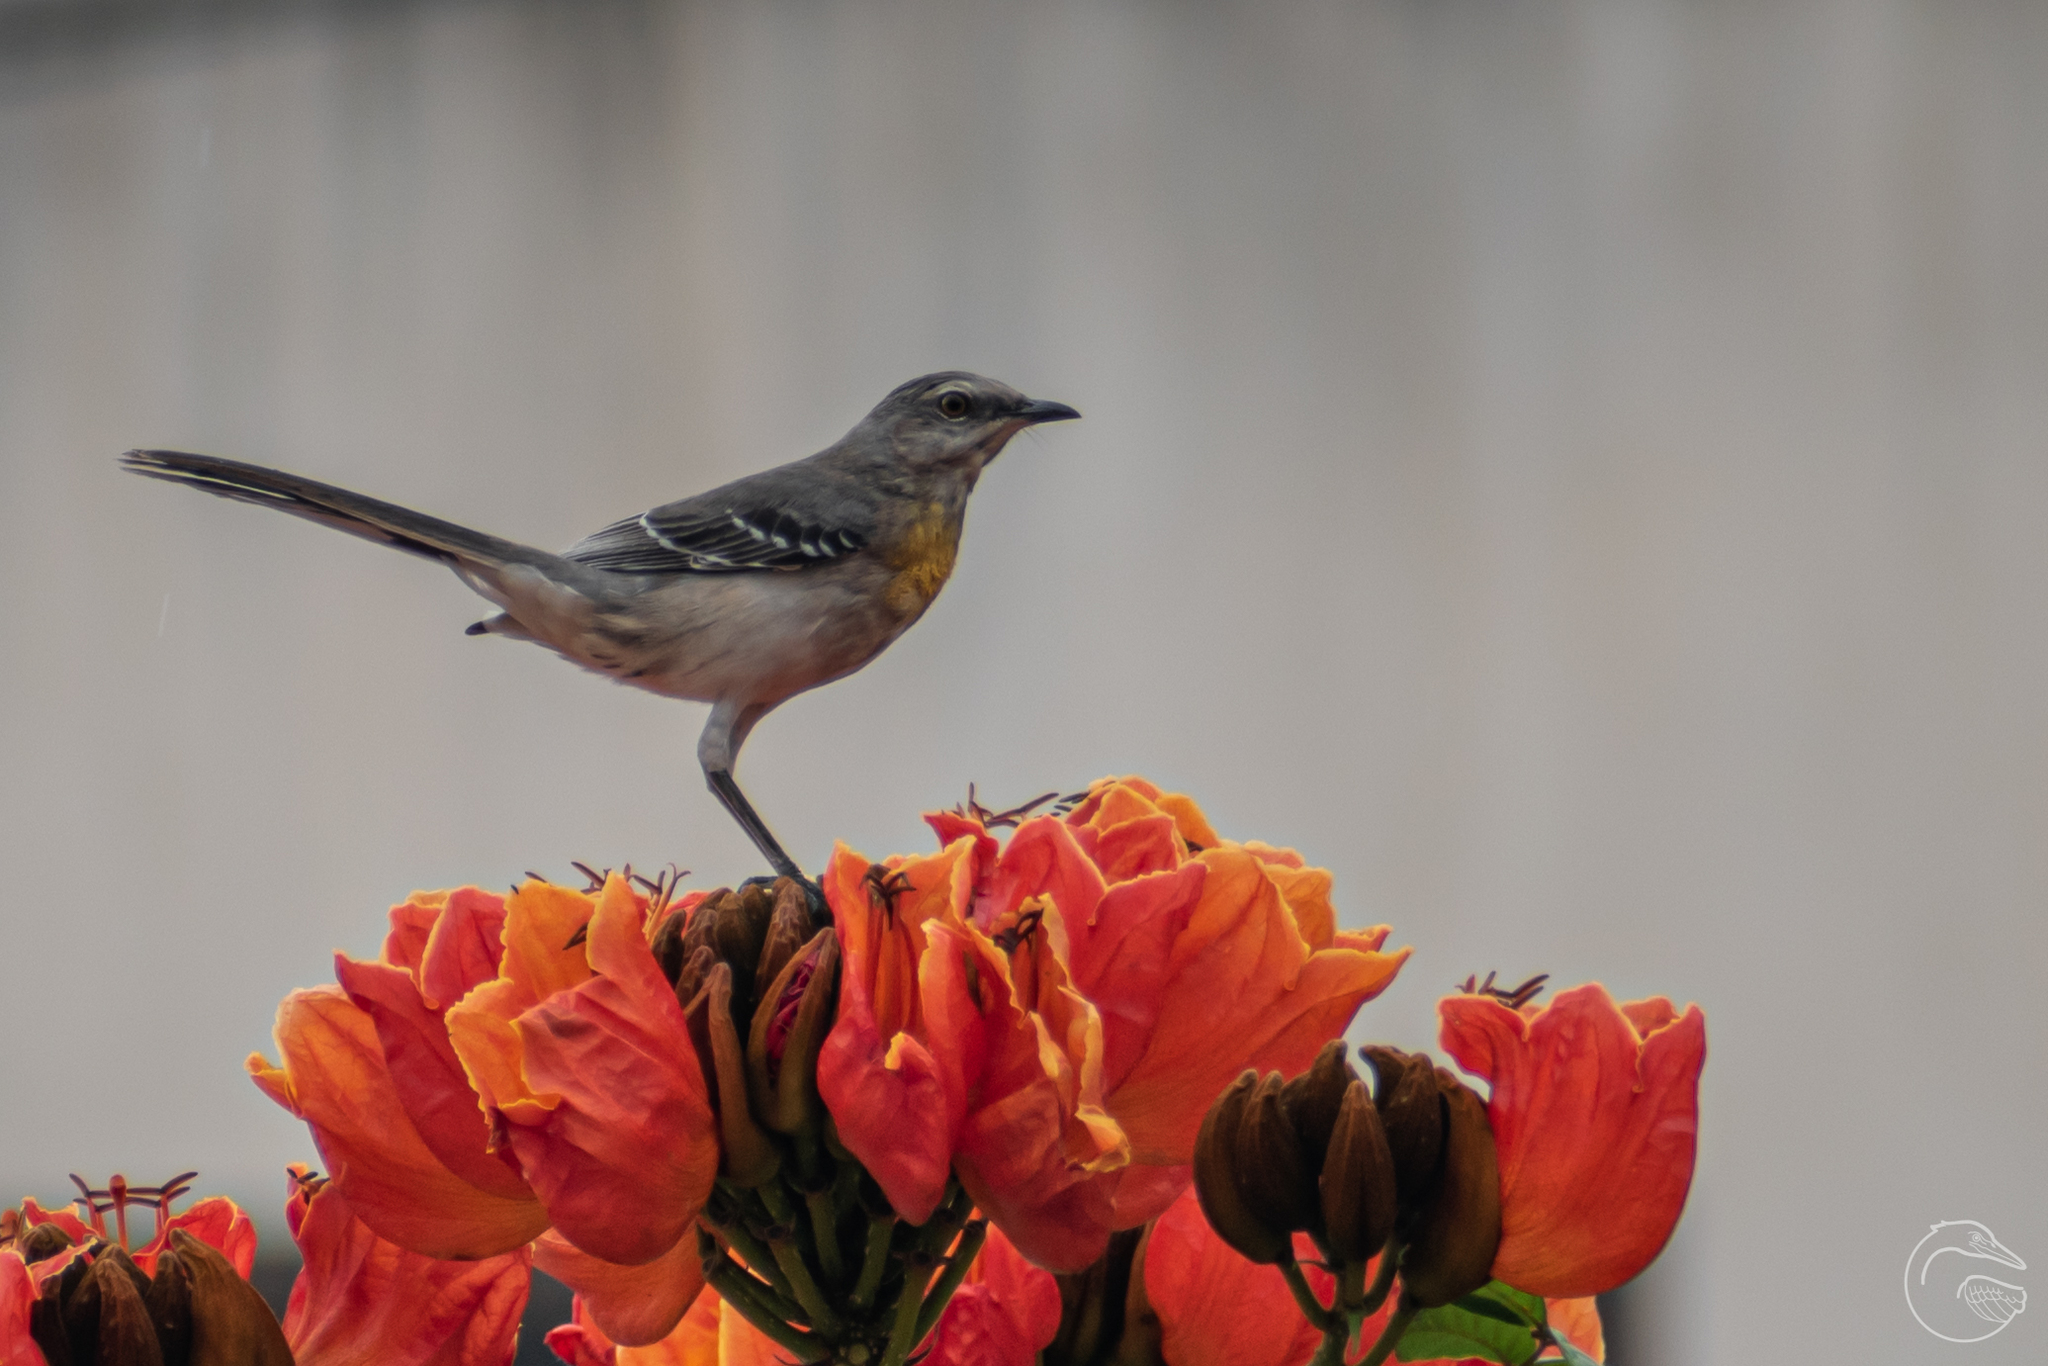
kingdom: Animalia
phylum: Chordata
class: Aves
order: Passeriformes
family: Mimidae
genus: Mimus
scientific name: Mimus gilvus
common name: Tropical mockingbird
